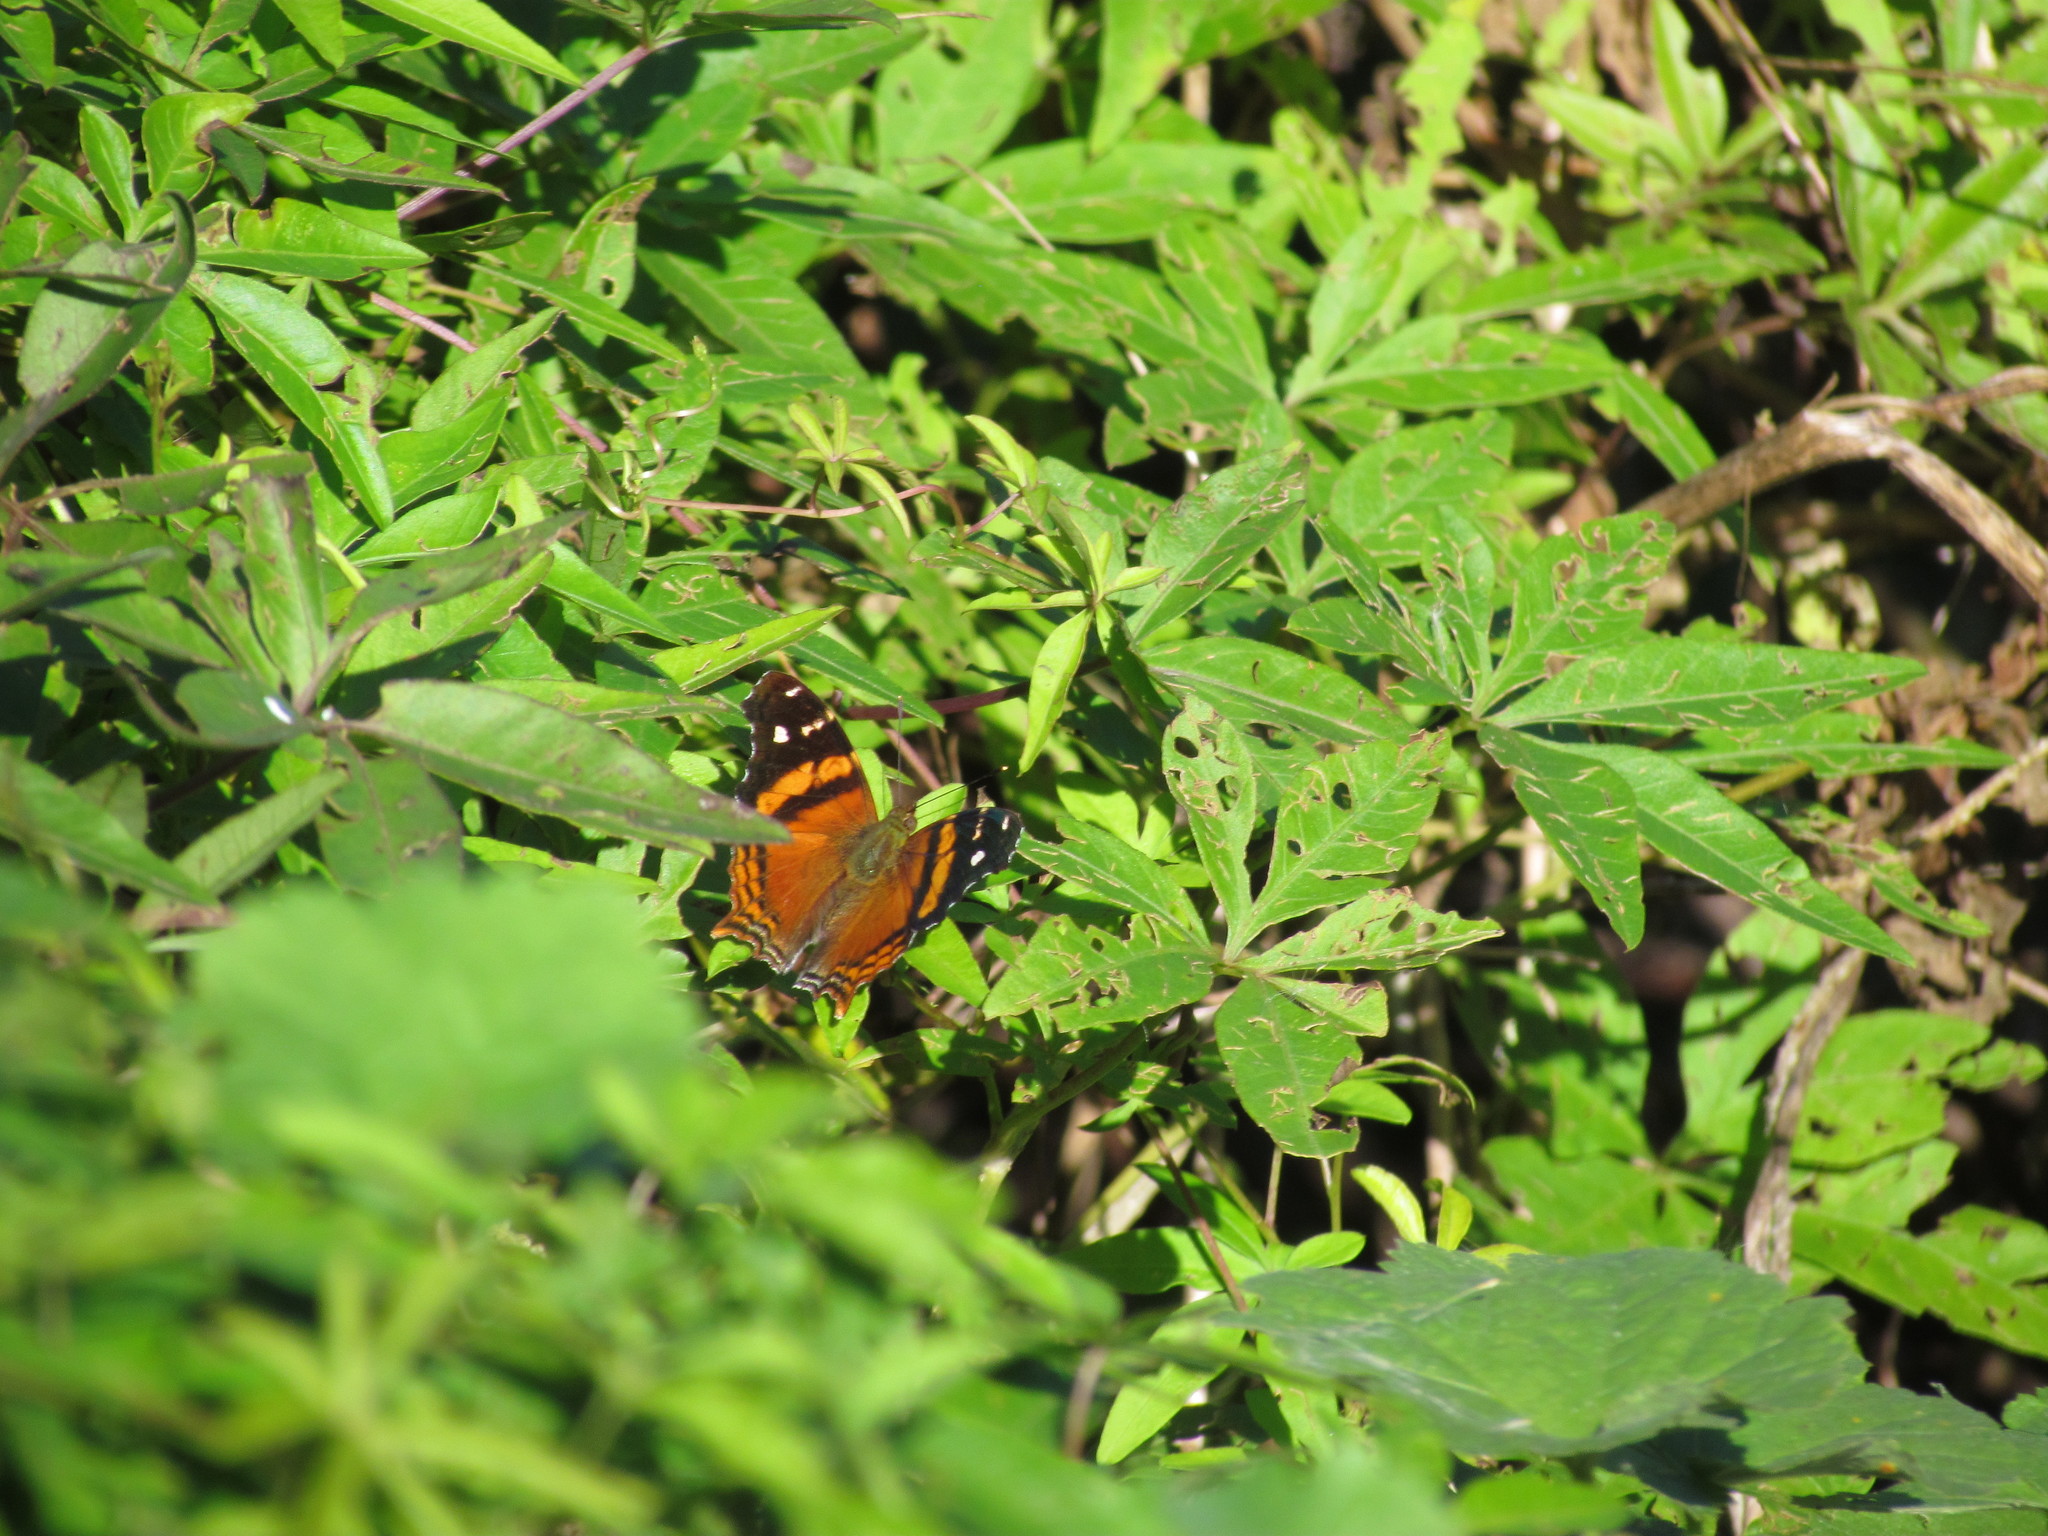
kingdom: Animalia
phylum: Arthropoda
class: Insecta
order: Lepidoptera
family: Nymphalidae
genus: Hypanartia
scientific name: Hypanartia bella
